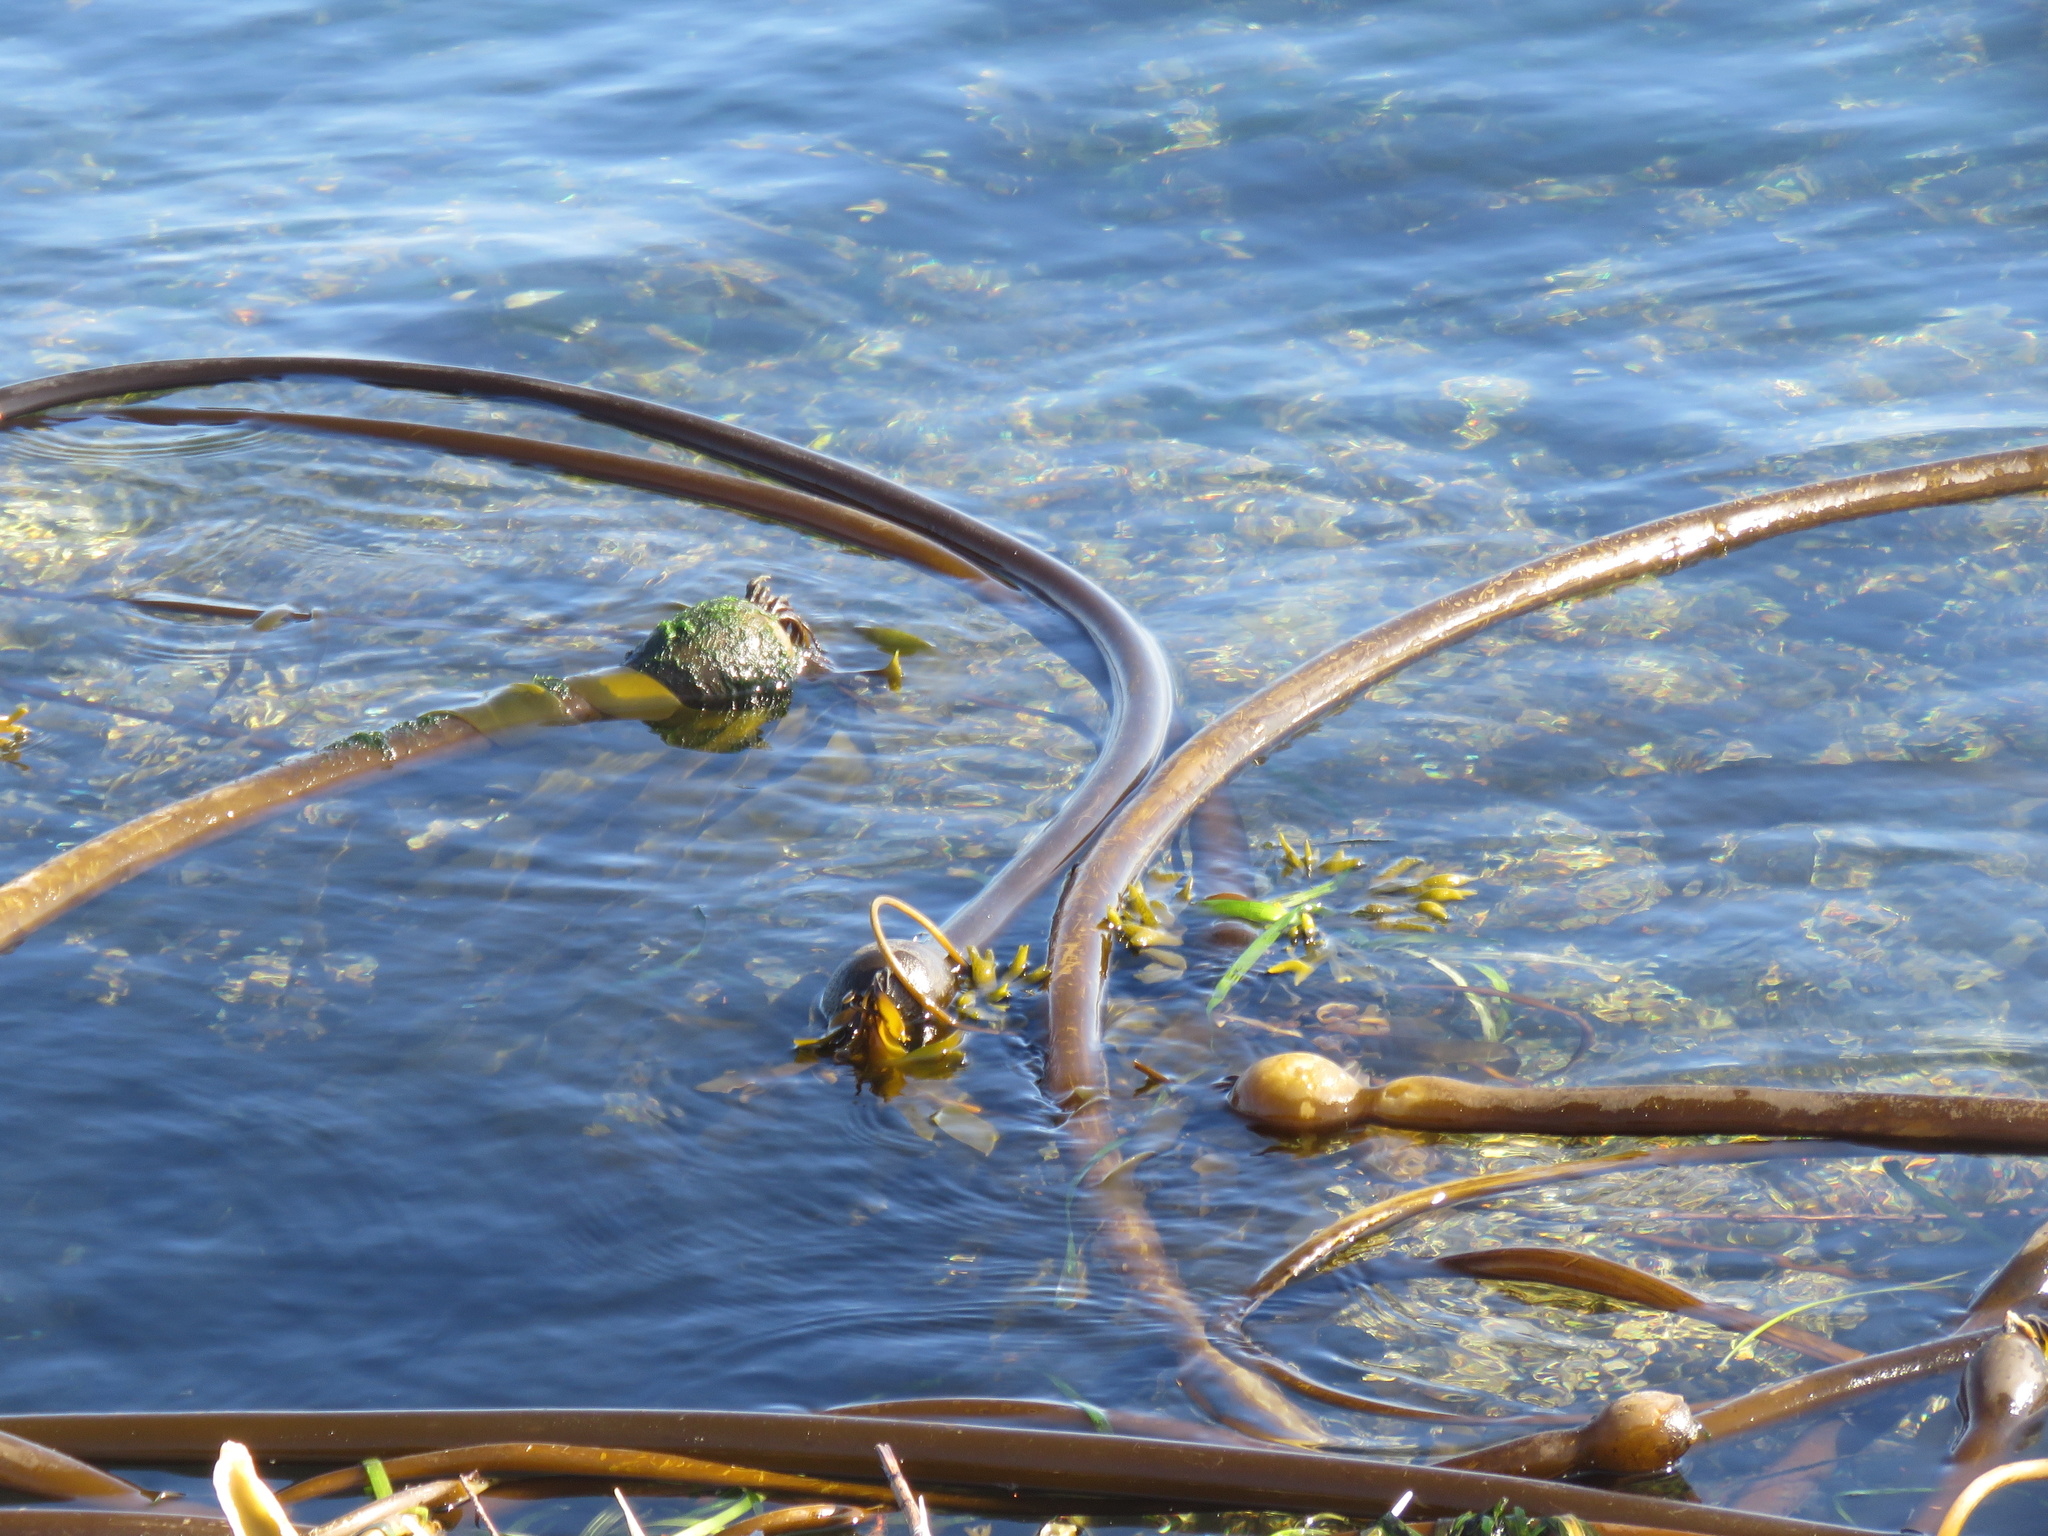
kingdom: Chromista
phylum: Ochrophyta
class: Phaeophyceae
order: Laminariales
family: Laminariaceae
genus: Nereocystis
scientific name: Nereocystis luetkeana
